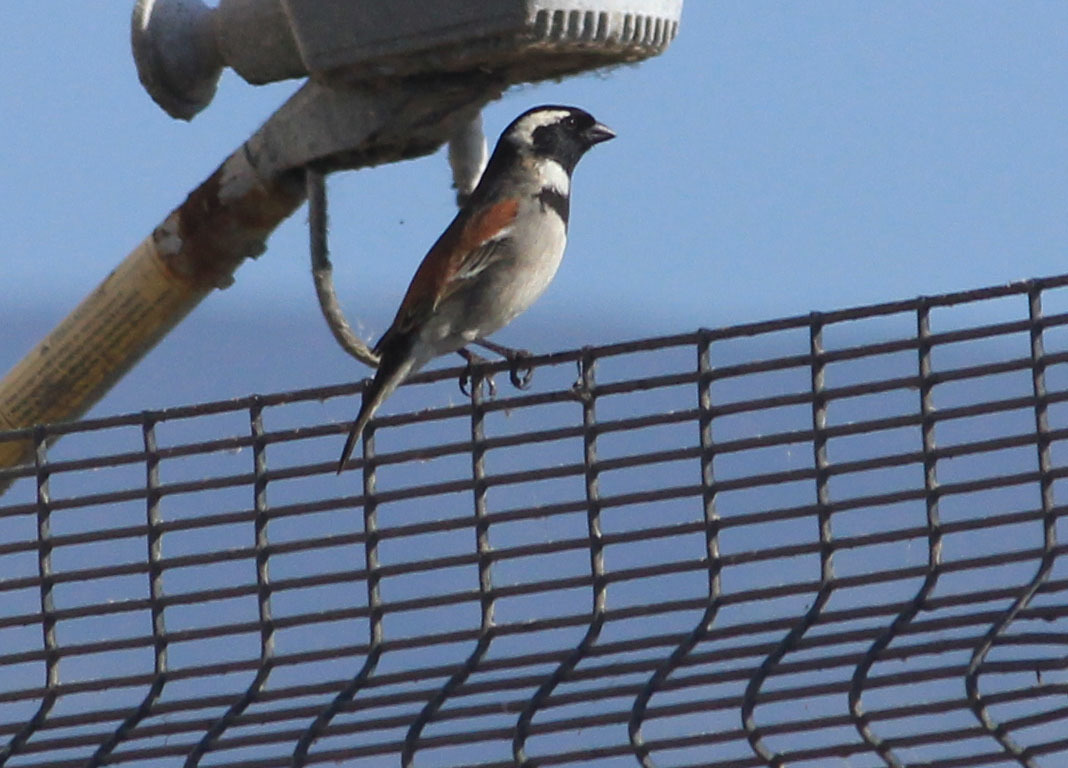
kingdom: Animalia
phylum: Chordata
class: Aves
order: Passeriformes
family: Passeridae
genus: Passer
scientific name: Passer melanurus
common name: Cape sparrow
